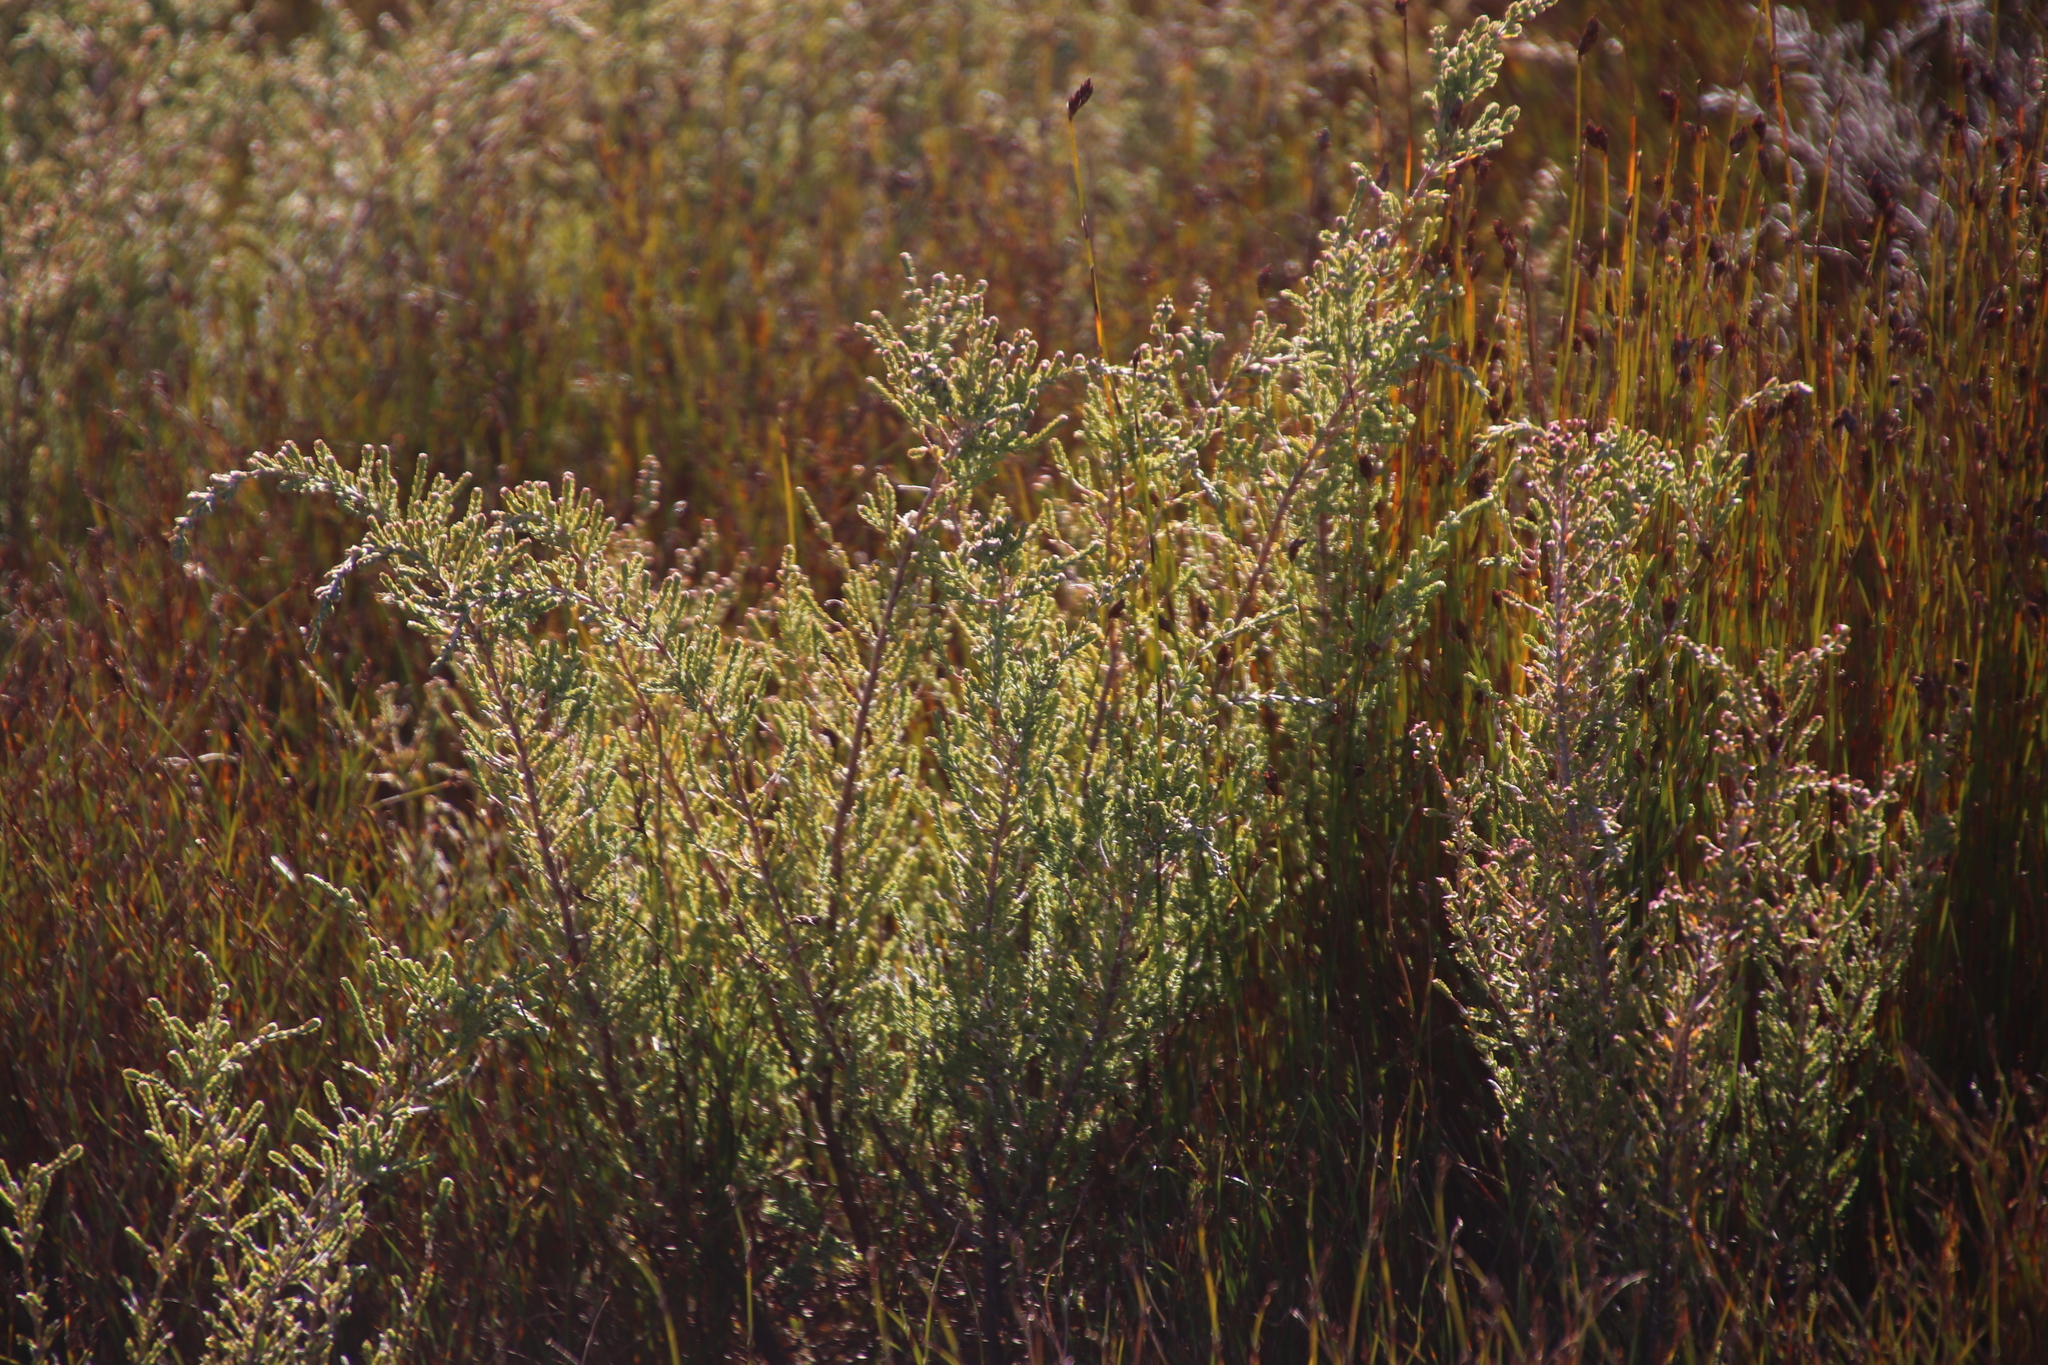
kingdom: Plantae
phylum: Tracheophyta
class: Magnoliopsida
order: Malvales
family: Thymelaeaceae
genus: Passerina
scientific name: Passerina nivicola
